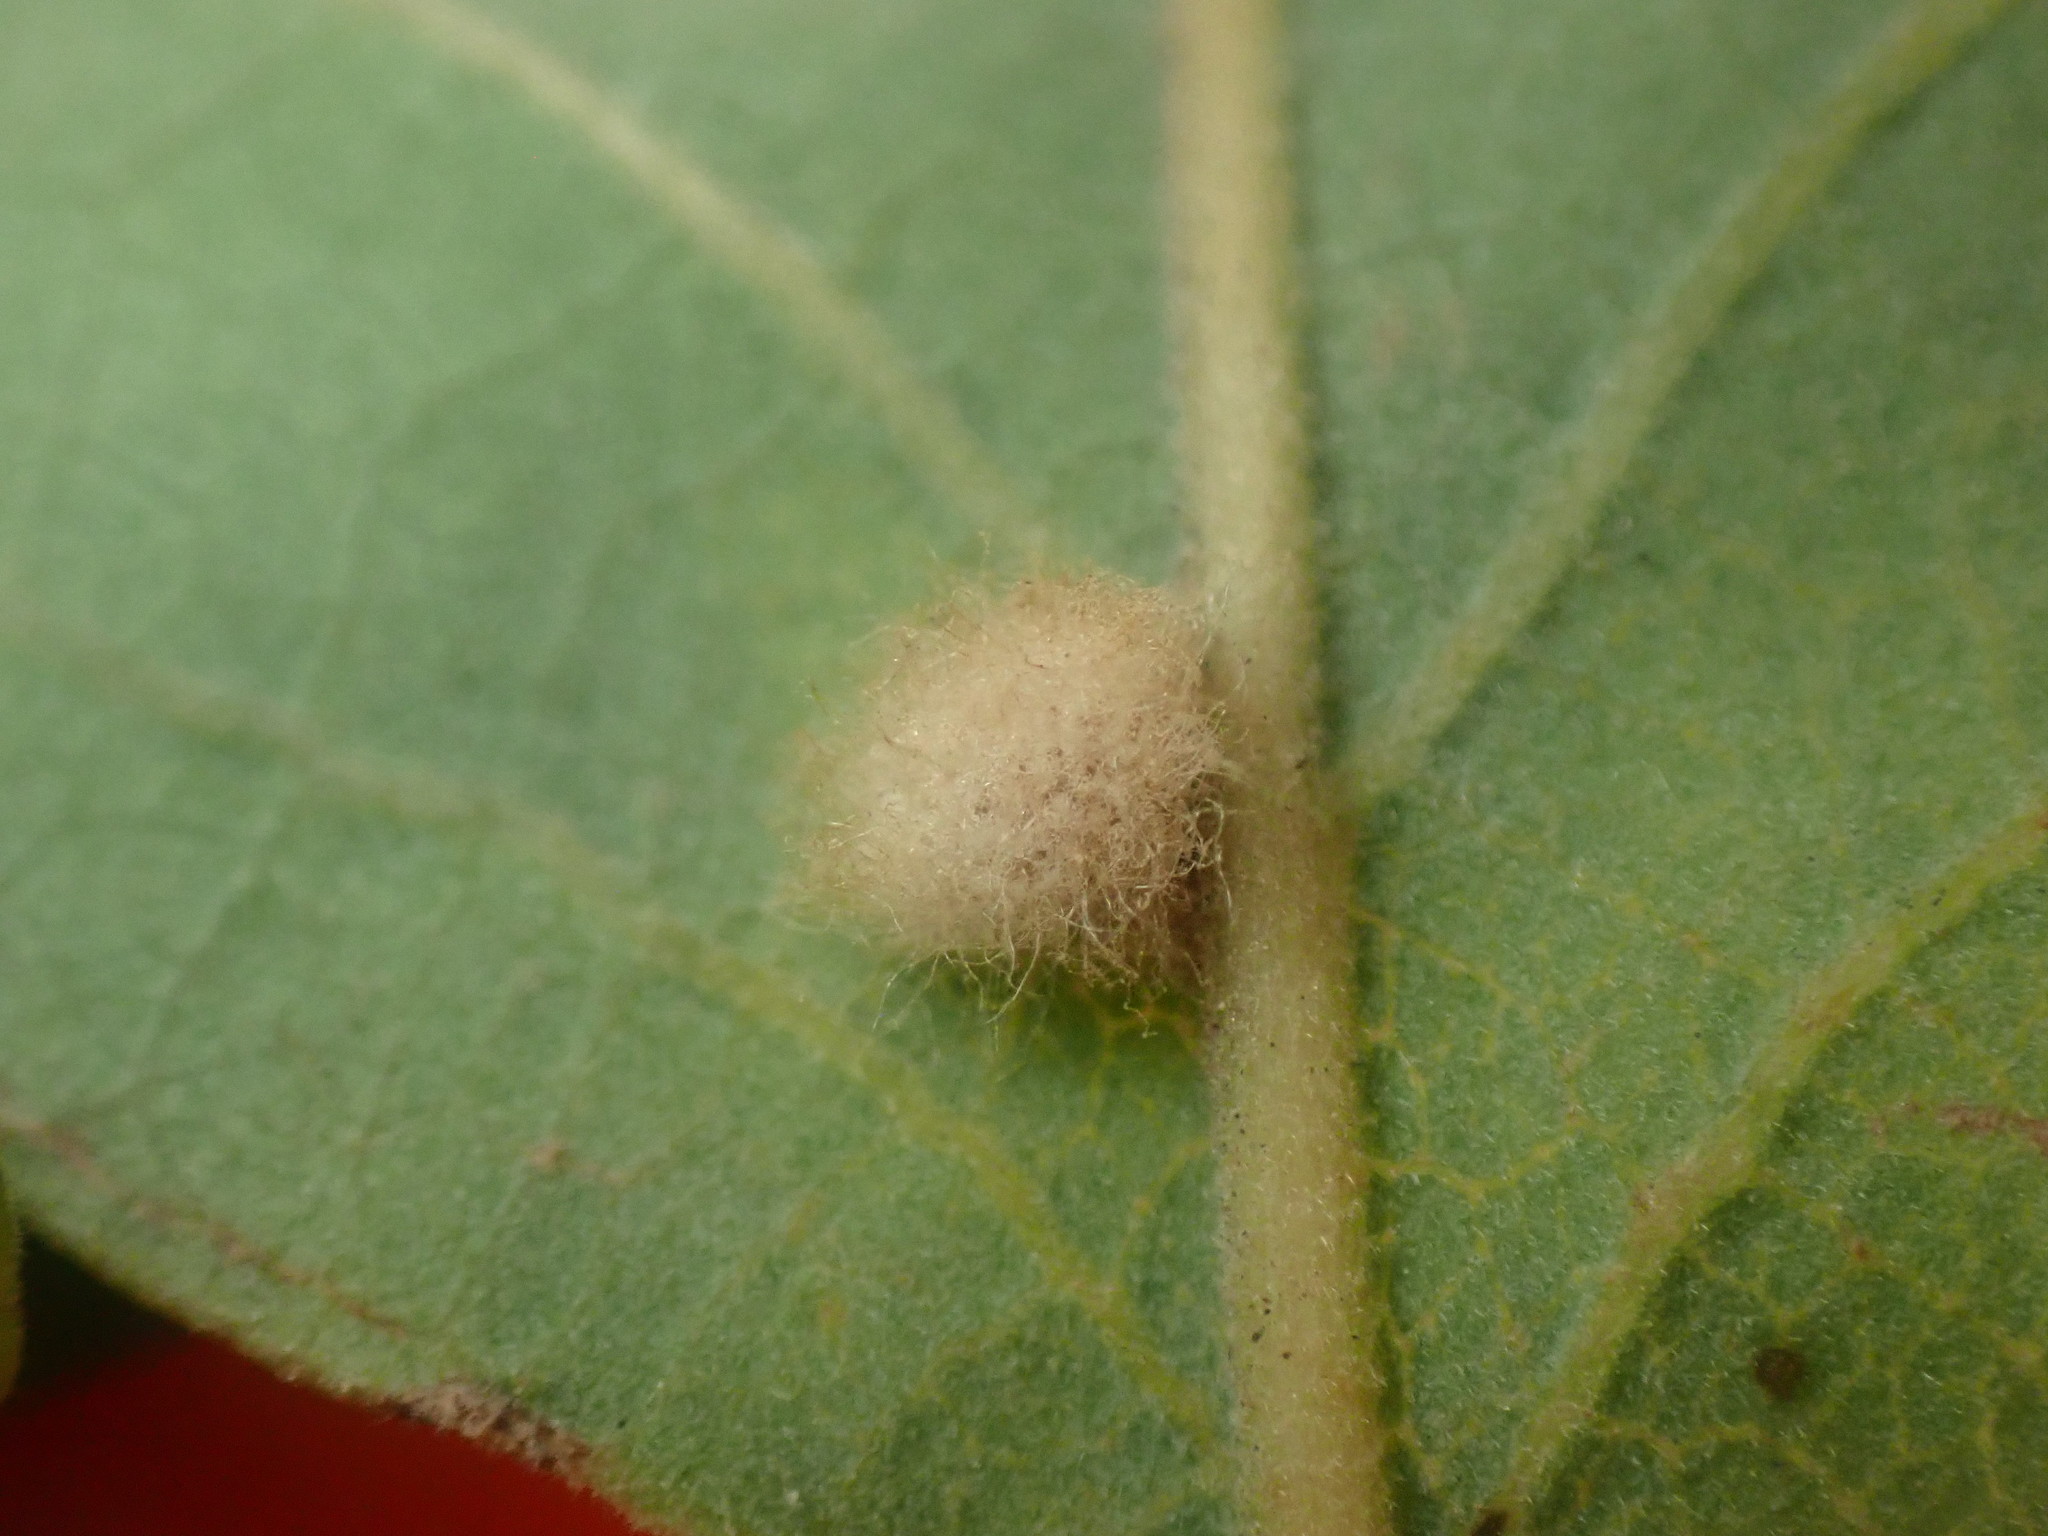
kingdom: Animalia
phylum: Arthropoda
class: Insecta
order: Hymenoptera
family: Cynipidae
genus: Andricus
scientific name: Andricus Druon fullawayi
